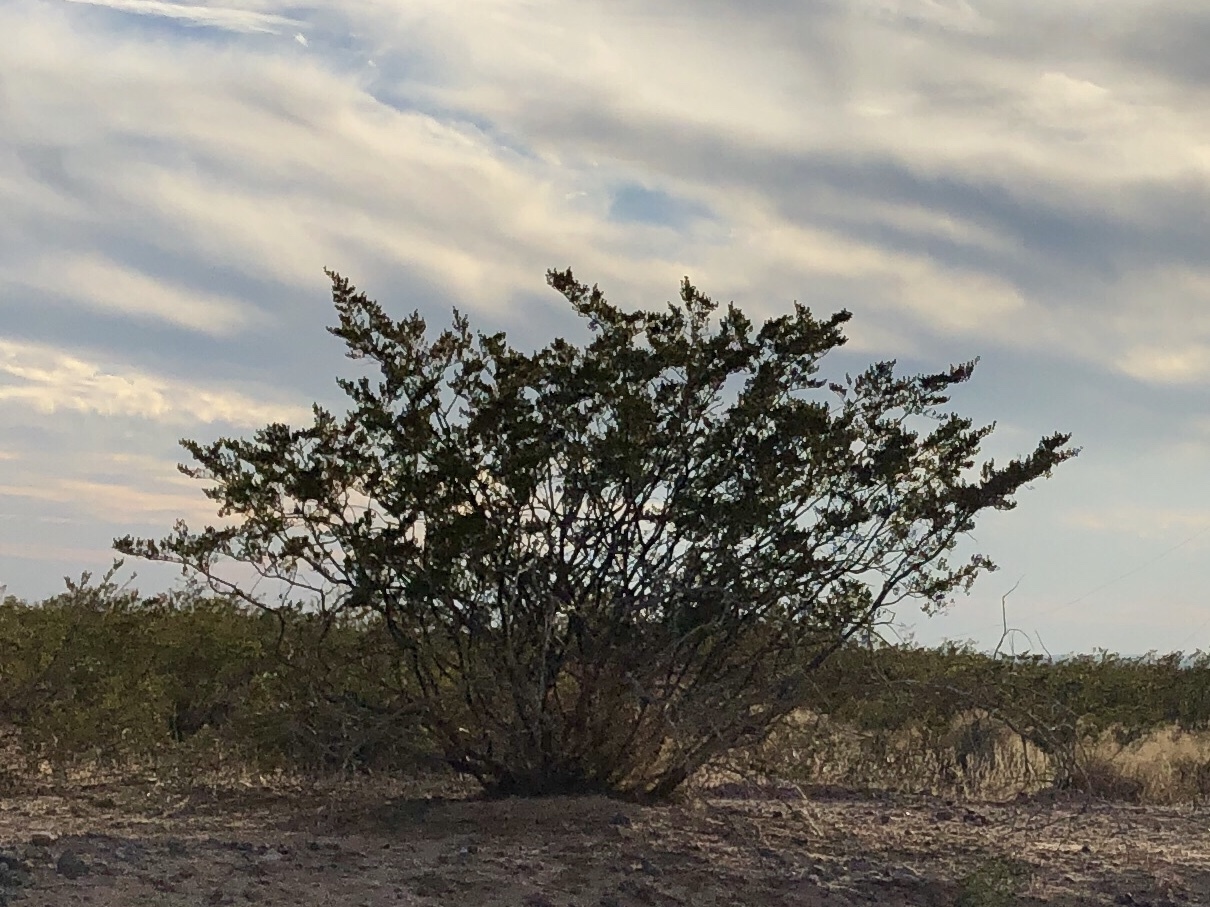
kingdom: Plantae
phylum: Tracheophyta
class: Magnoliopsida
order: Zygophyllales
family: Zygophyllaceae
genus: Larrea
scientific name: Larrea tridentata
